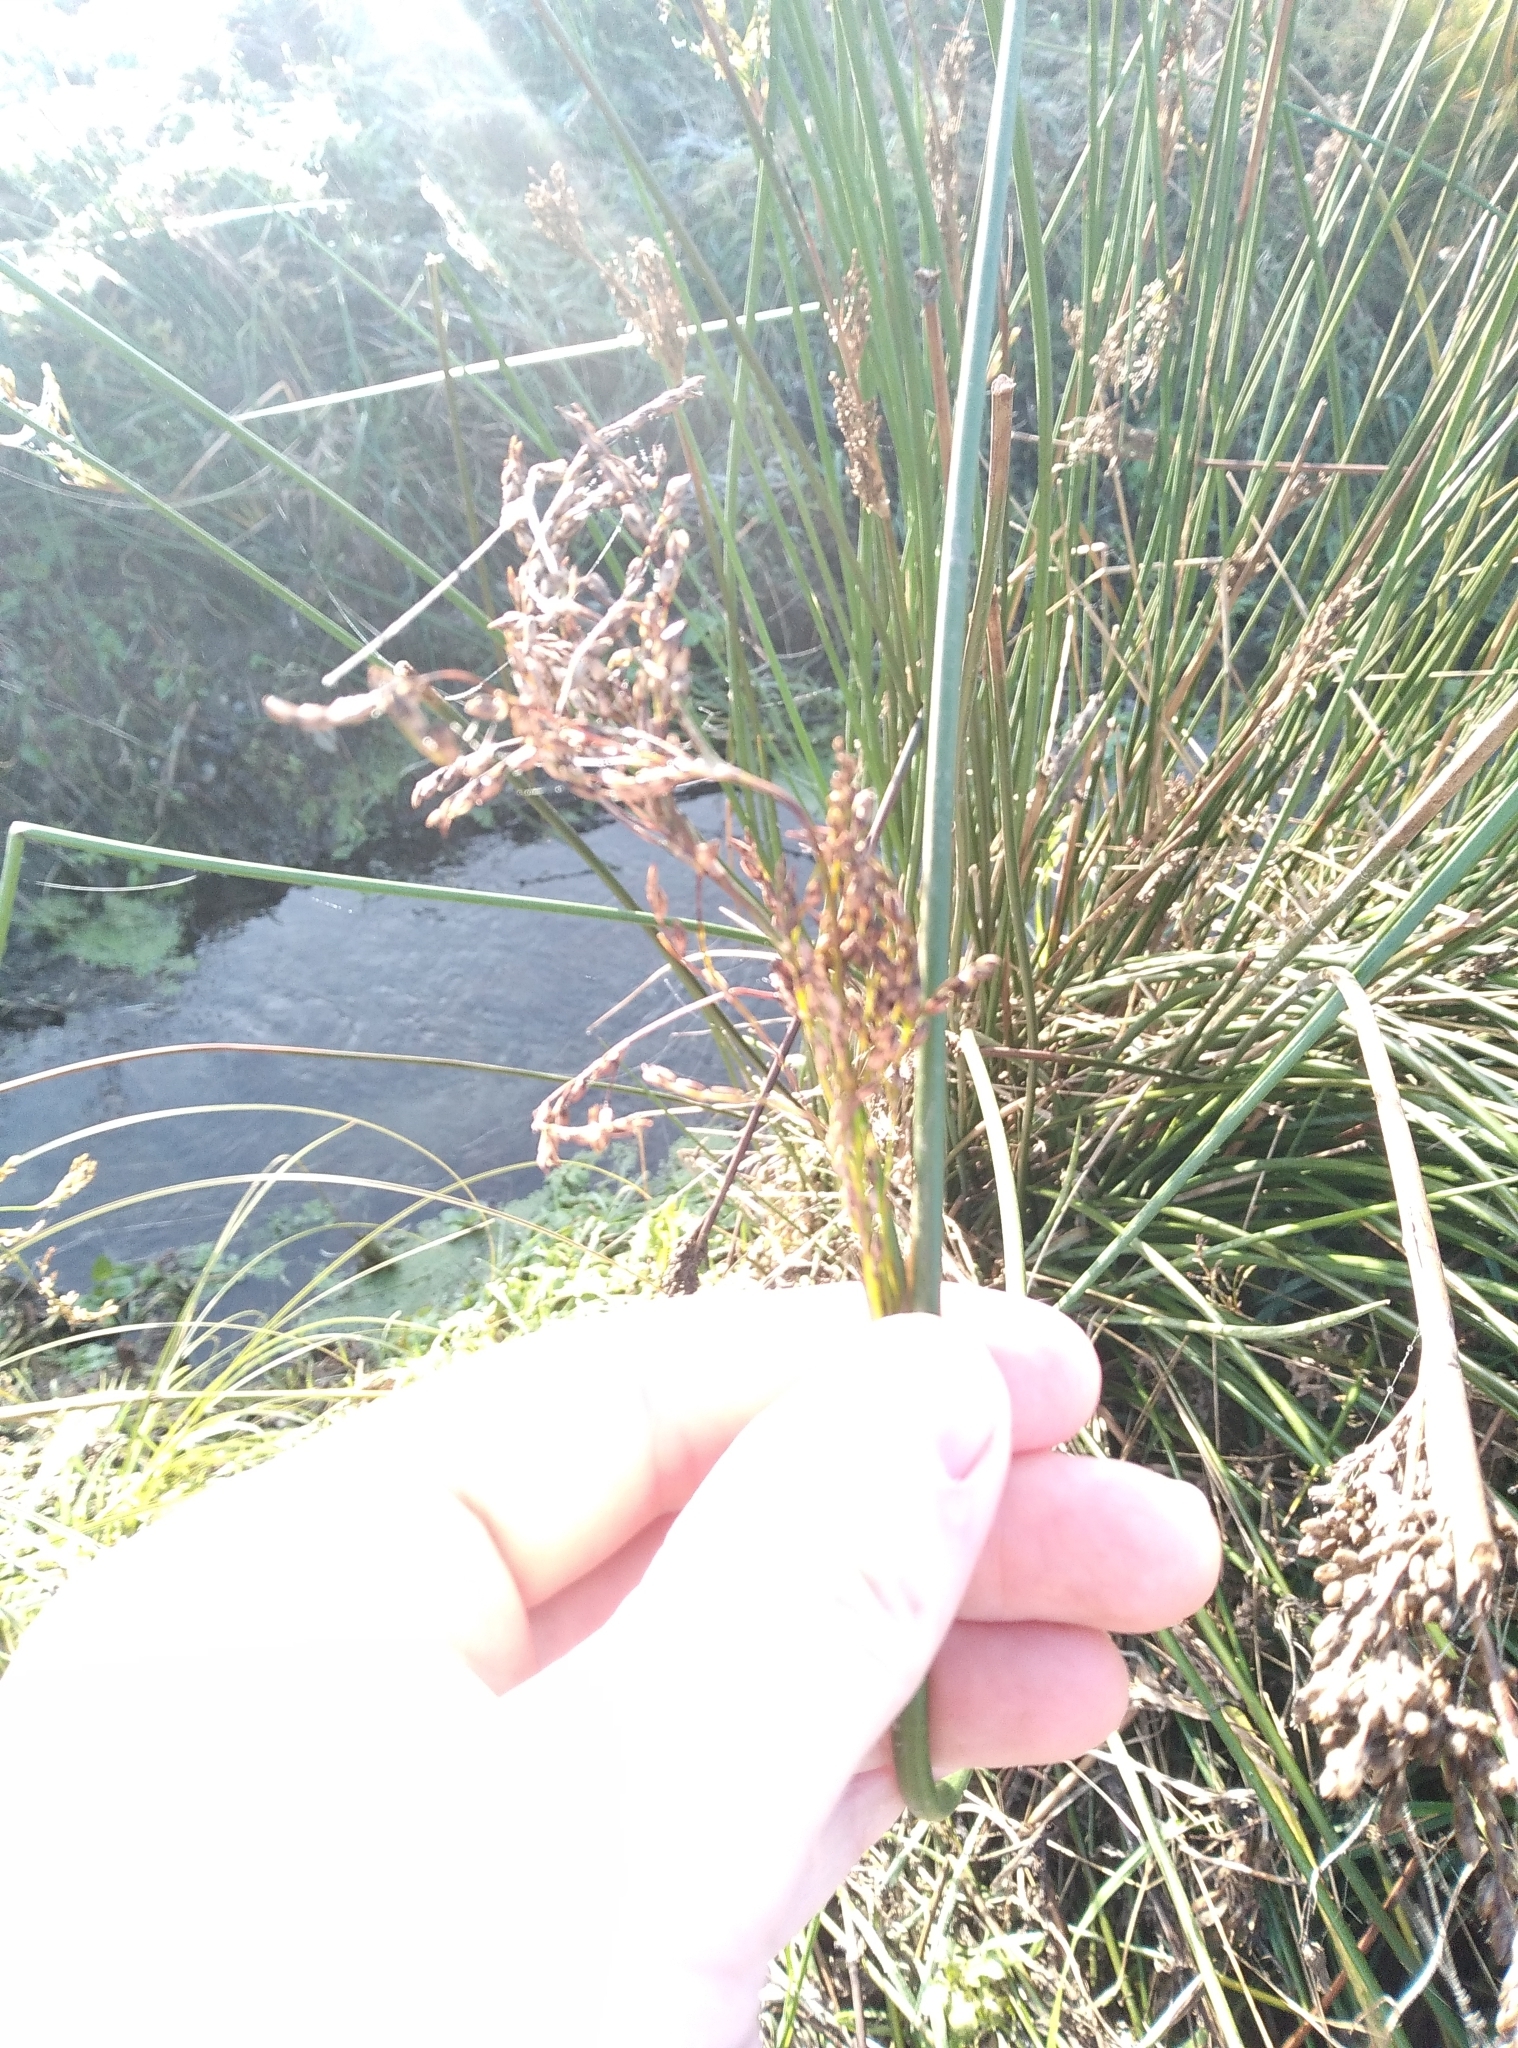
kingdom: Plantae
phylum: Tracheophyta
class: Liliopsida
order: Poales
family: Juncaceae
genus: Juncus
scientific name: Juncus pallidus
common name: Great soft-rush
